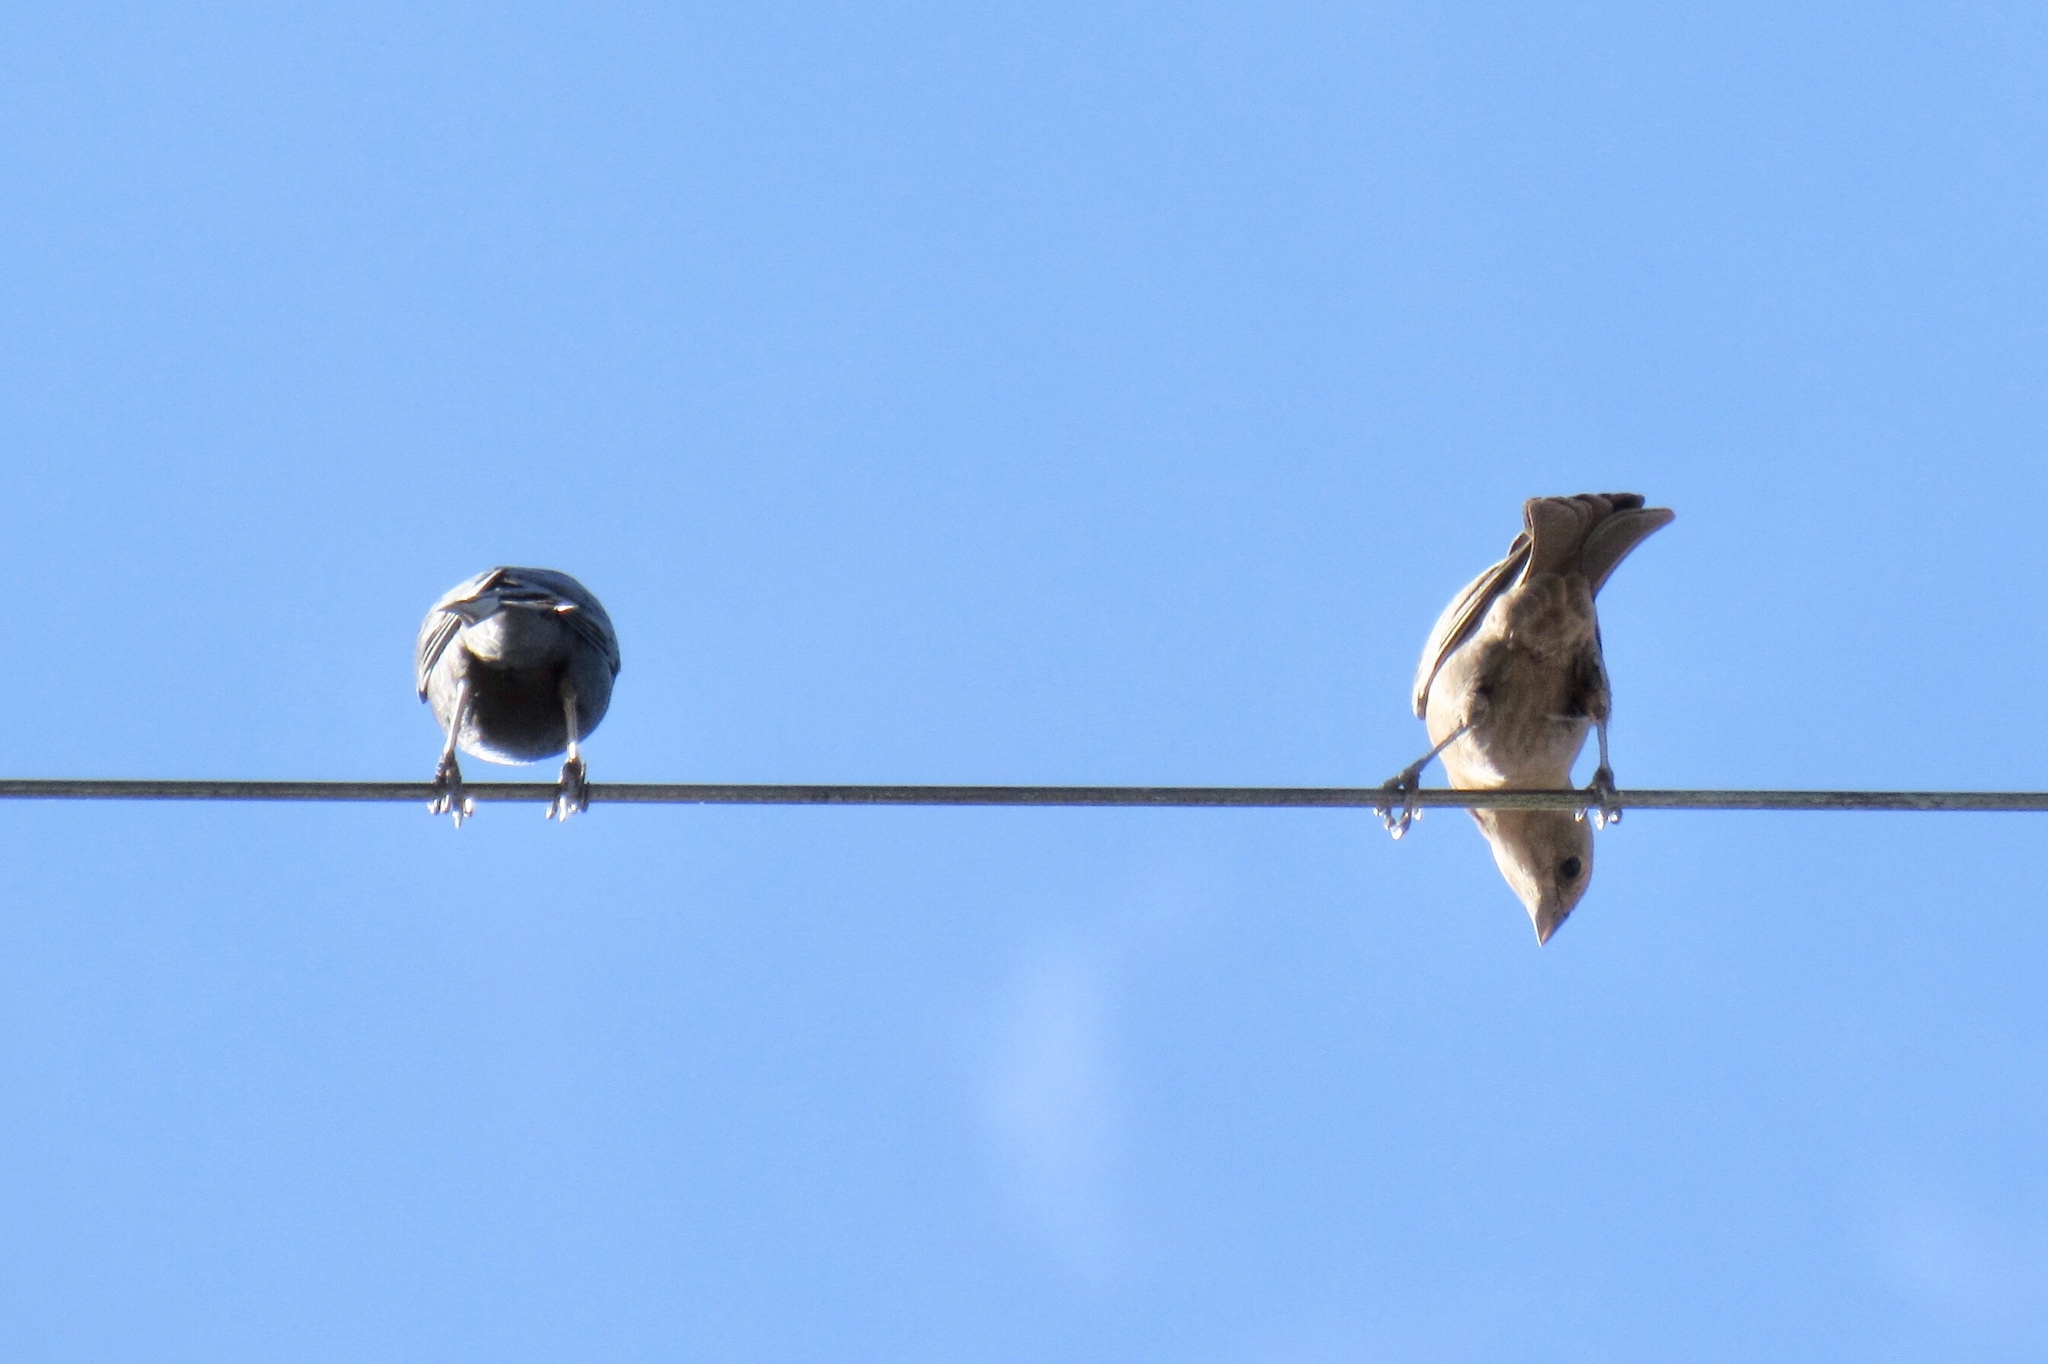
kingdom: Animalia
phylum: Chordata
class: Aves
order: Passeriformes
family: Fringillidae
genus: Haemorhous
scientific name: Haemorhous mexicanus
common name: House finch
